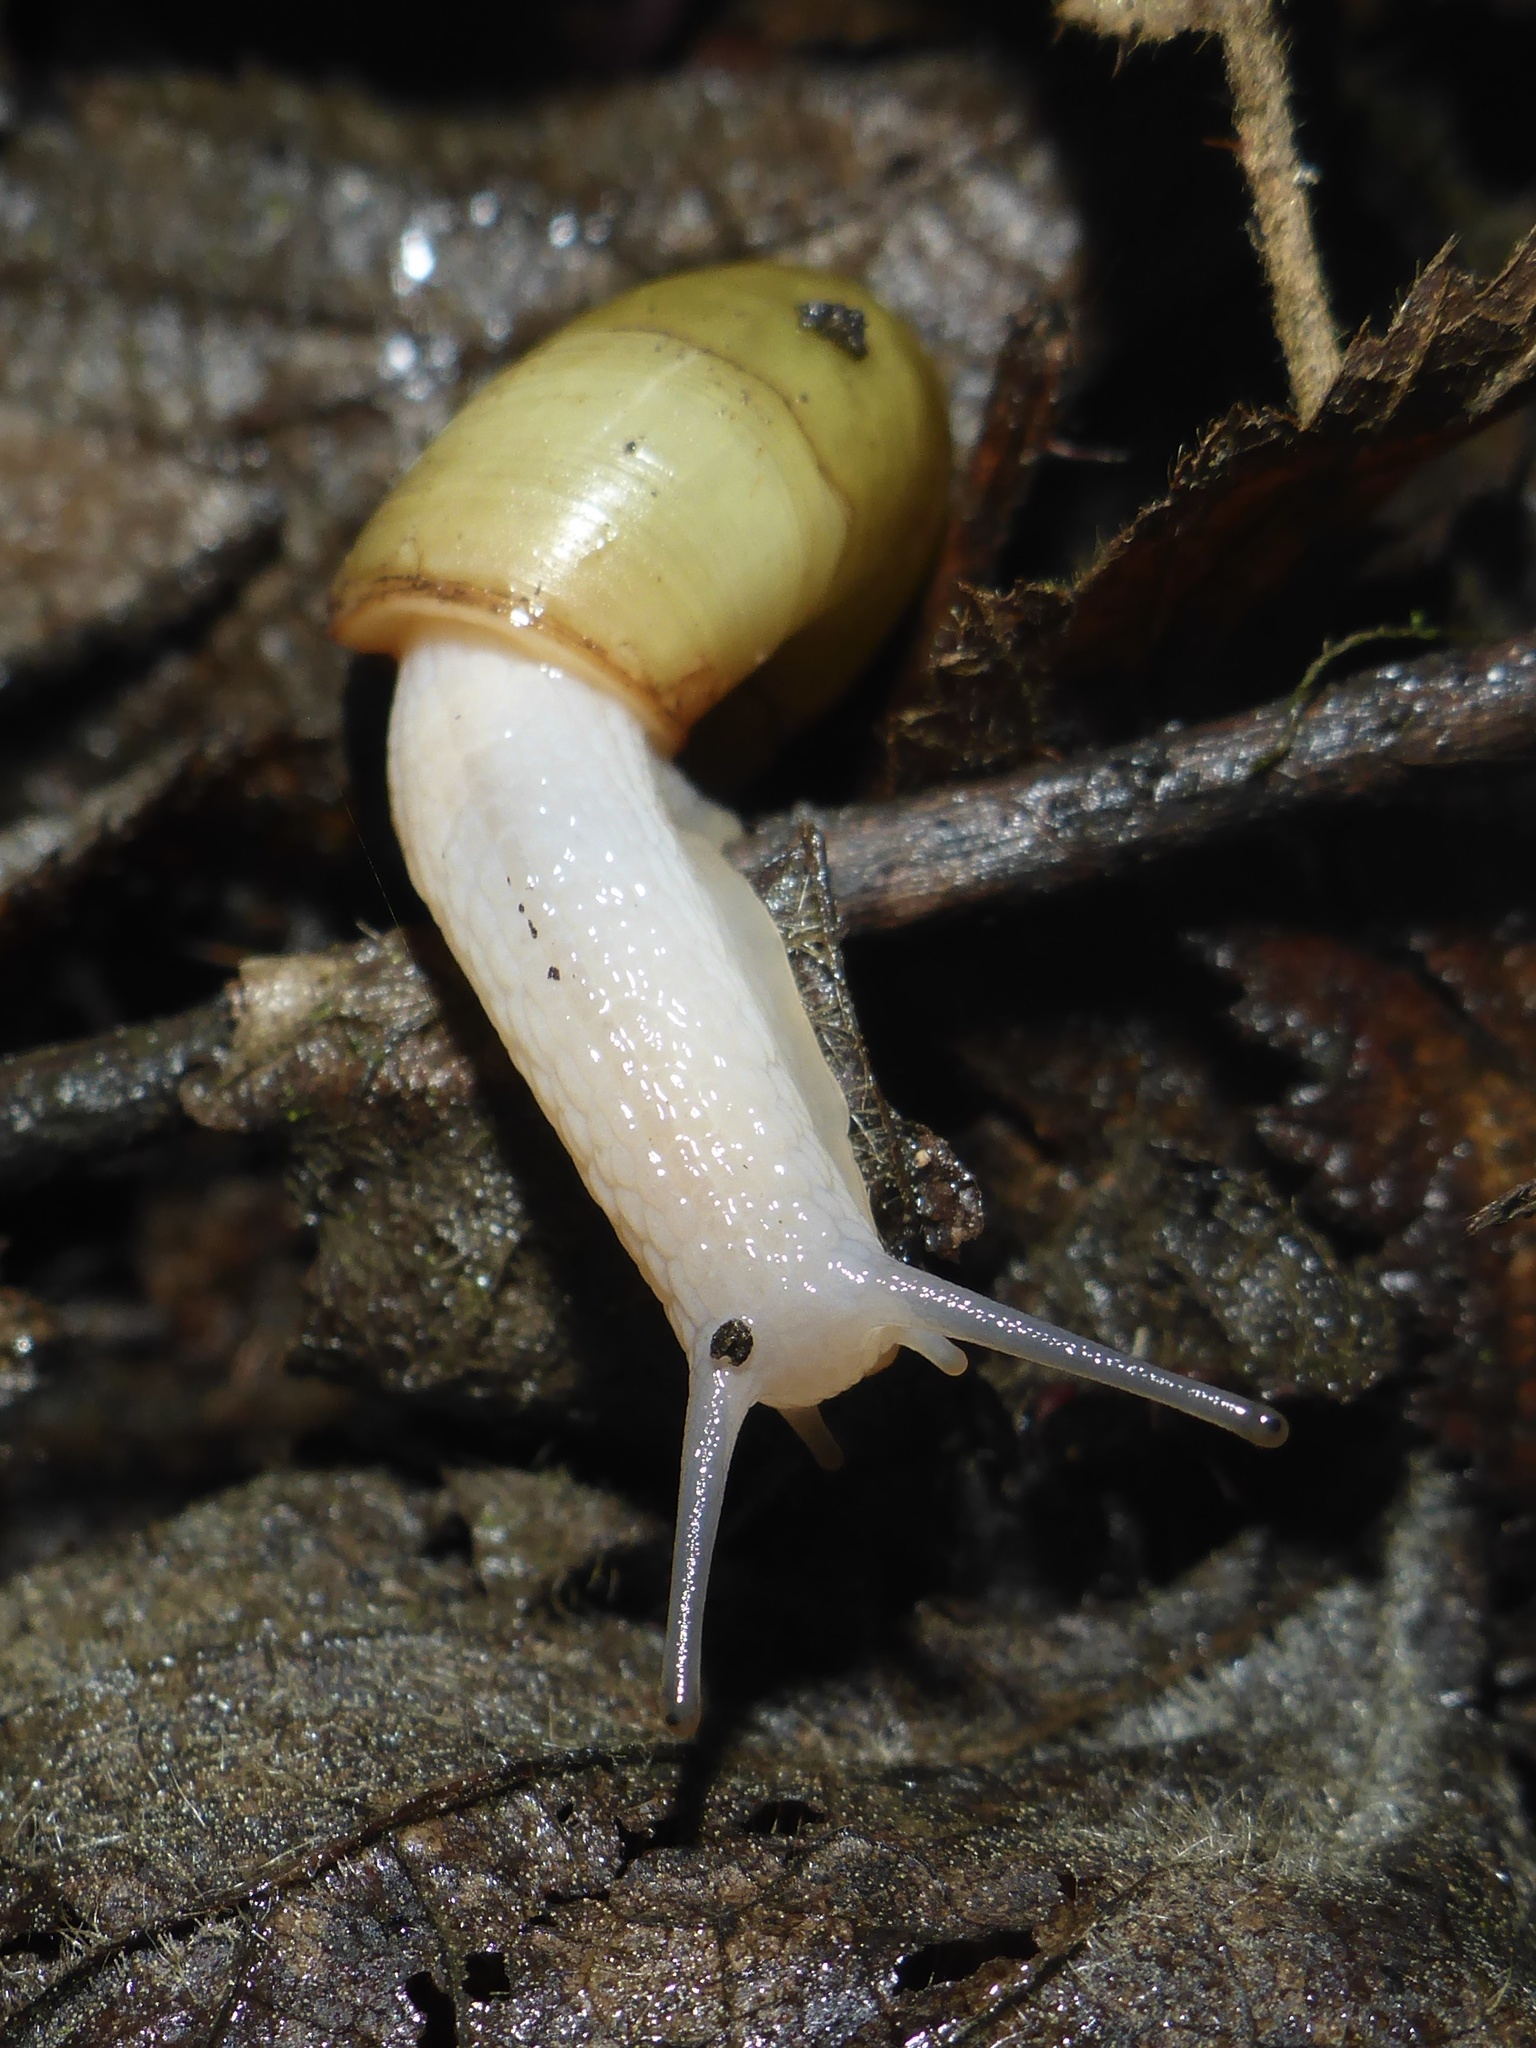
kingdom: Animalia
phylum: Mollusca
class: Gastropoda
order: Stylommatophora
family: Haplotrematidae
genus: Haplotrema
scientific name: Haplotrema minimum
